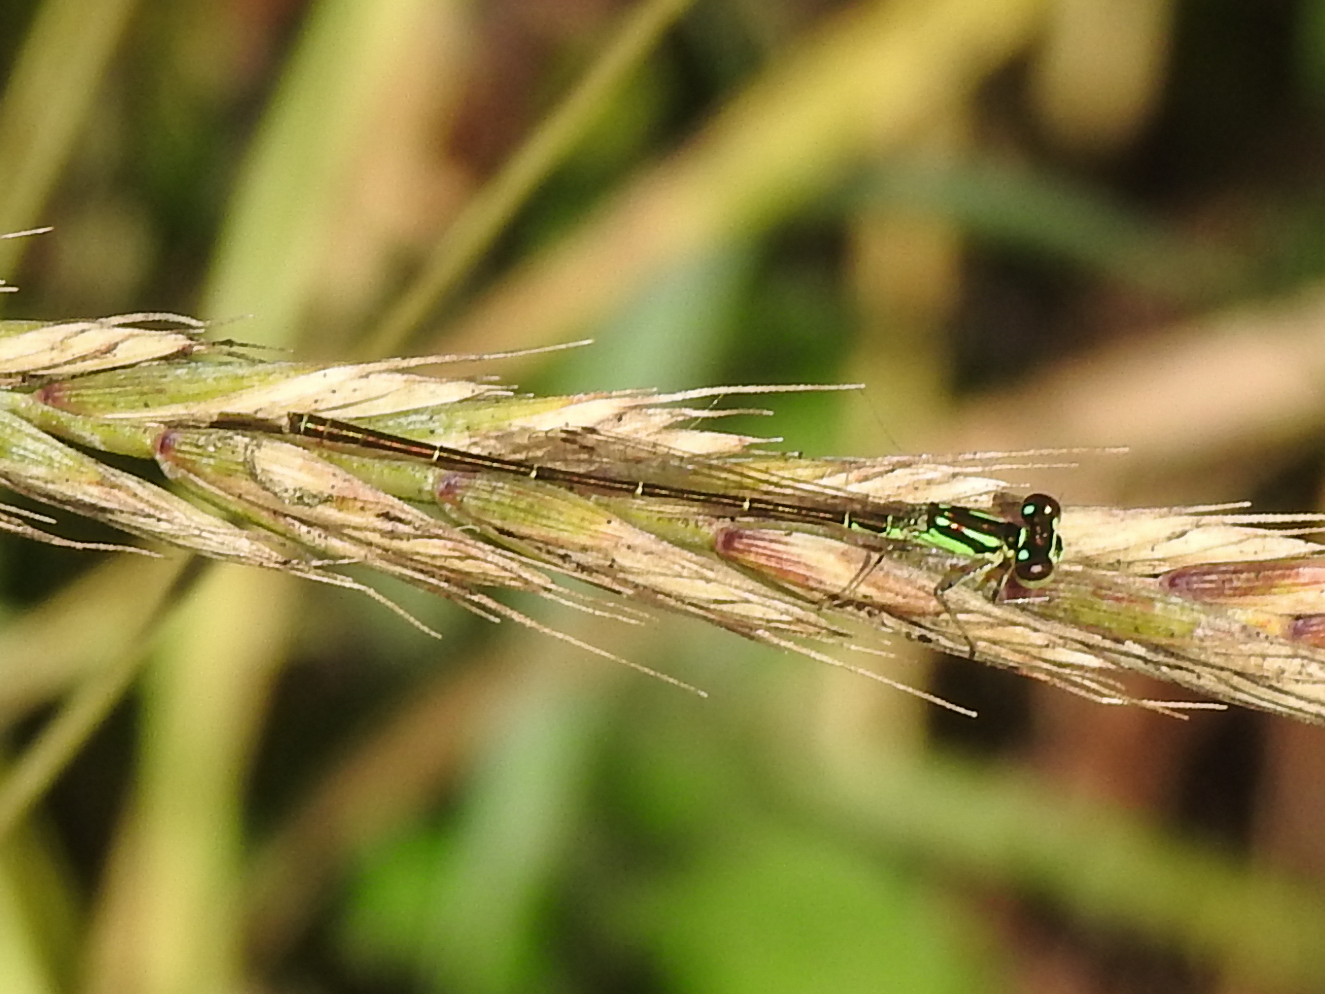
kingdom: Animalia
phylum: Arthropoda
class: Insecta
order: Odonata
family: Coenagrionidae
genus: Ischnura
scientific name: Ischnura posita
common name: Fragile forktail
